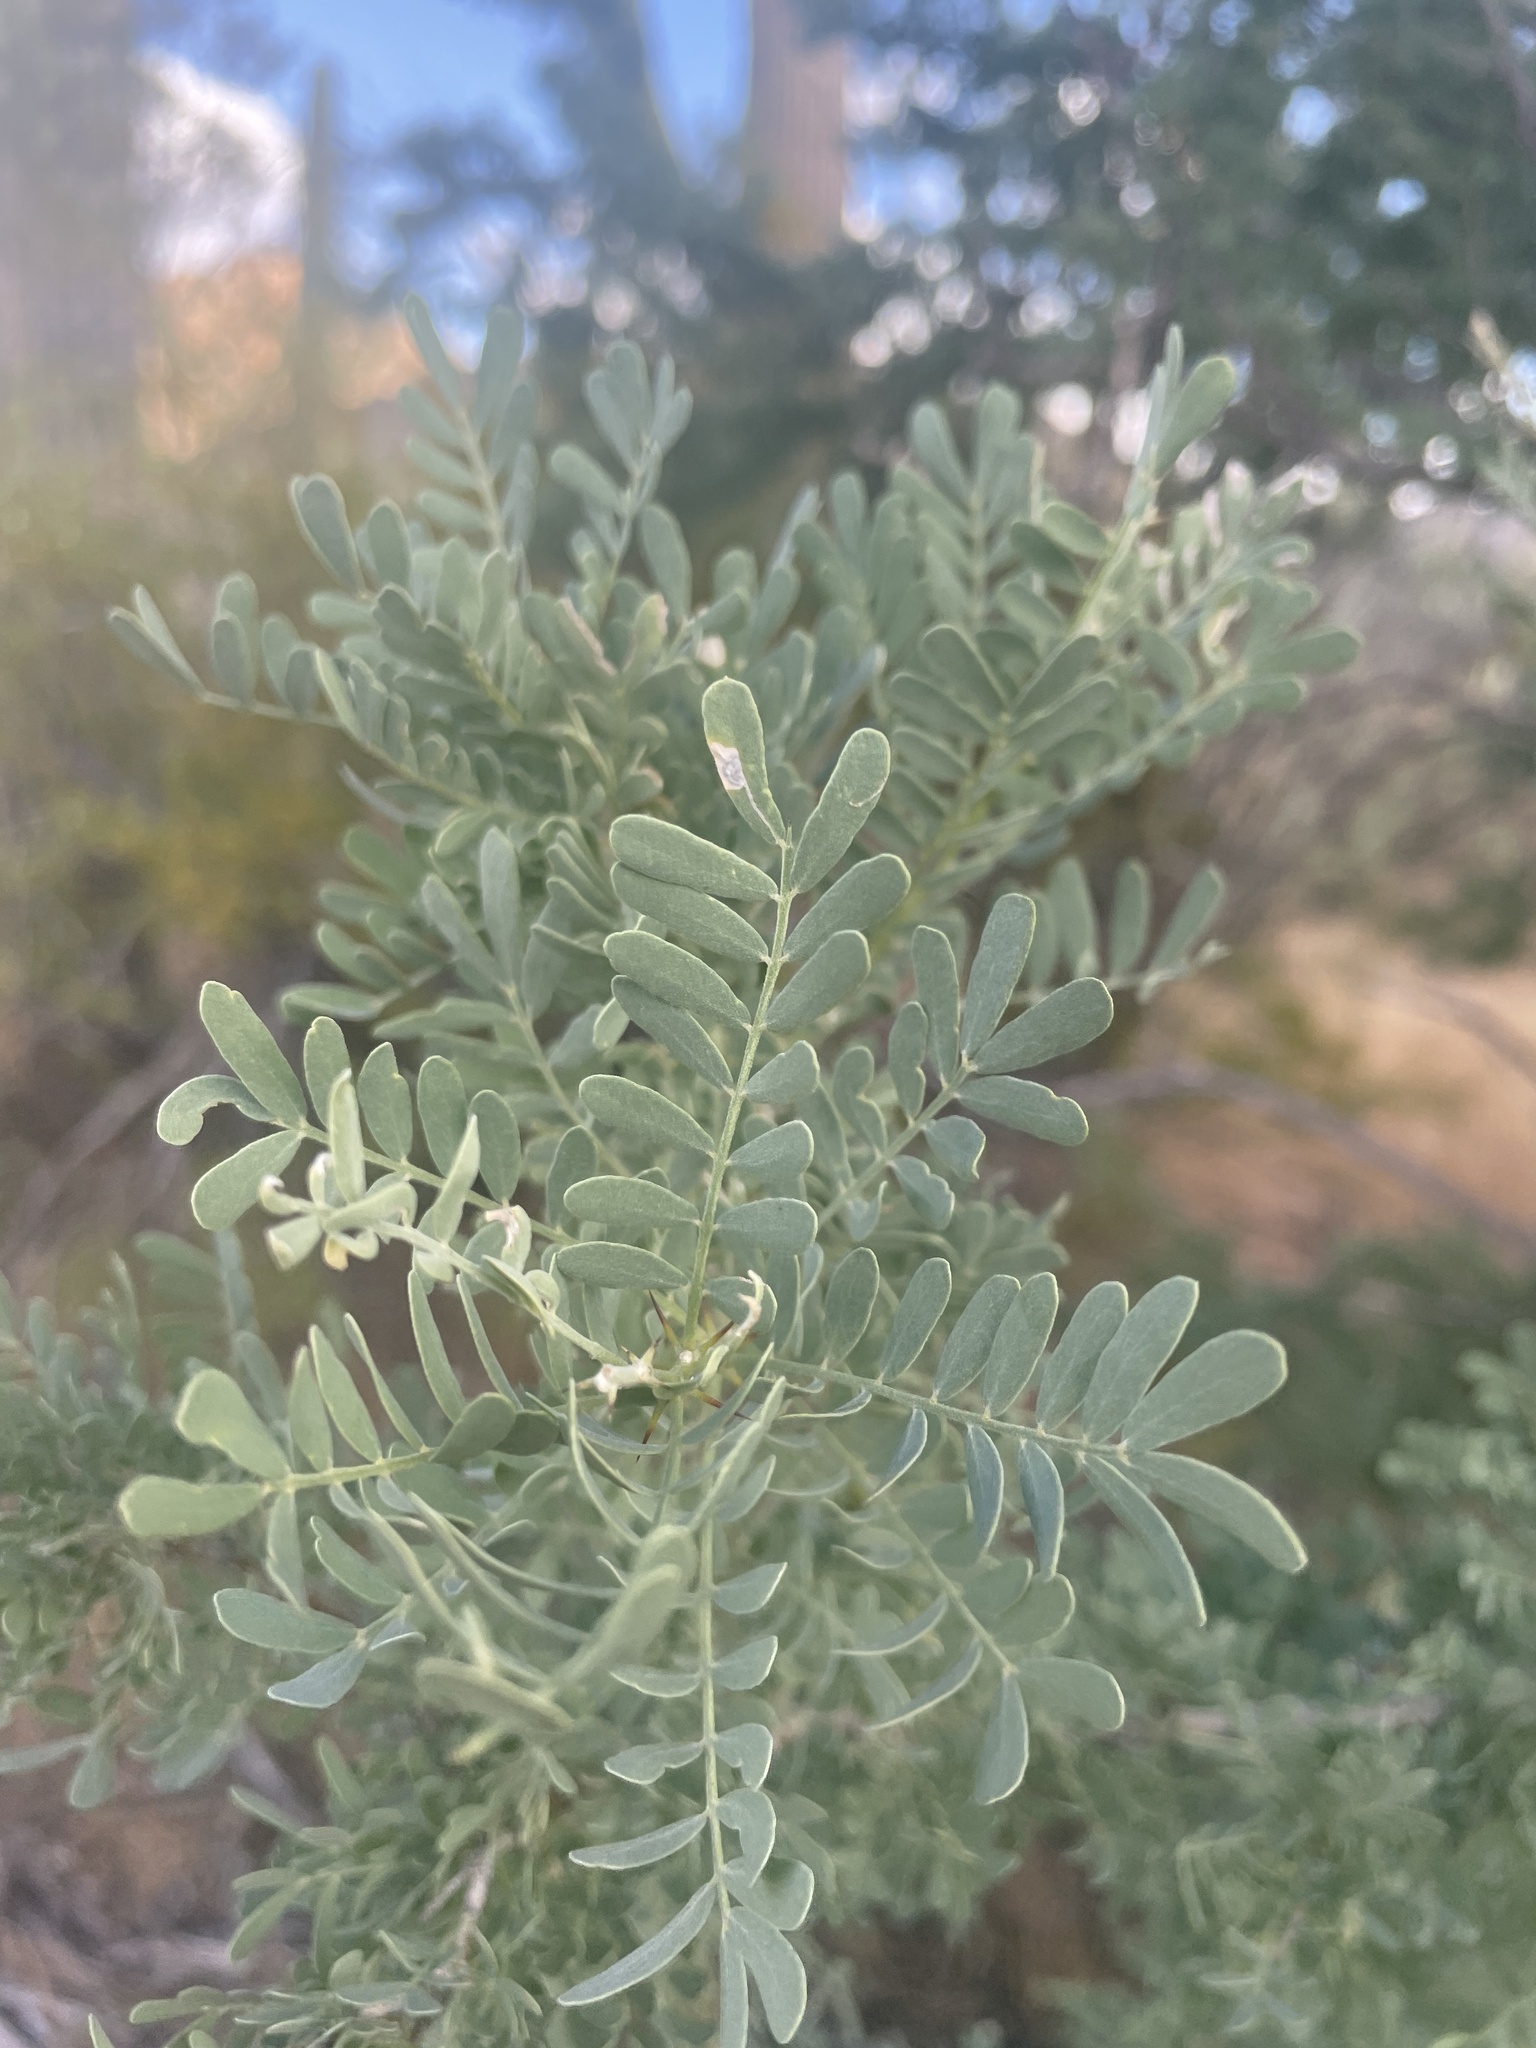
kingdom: Plantae
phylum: Tracheophyta
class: Magnoliopsida
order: Fabales
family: Fabaceae
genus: Olneya
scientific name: Olneya tesota
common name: Desert ironwood
